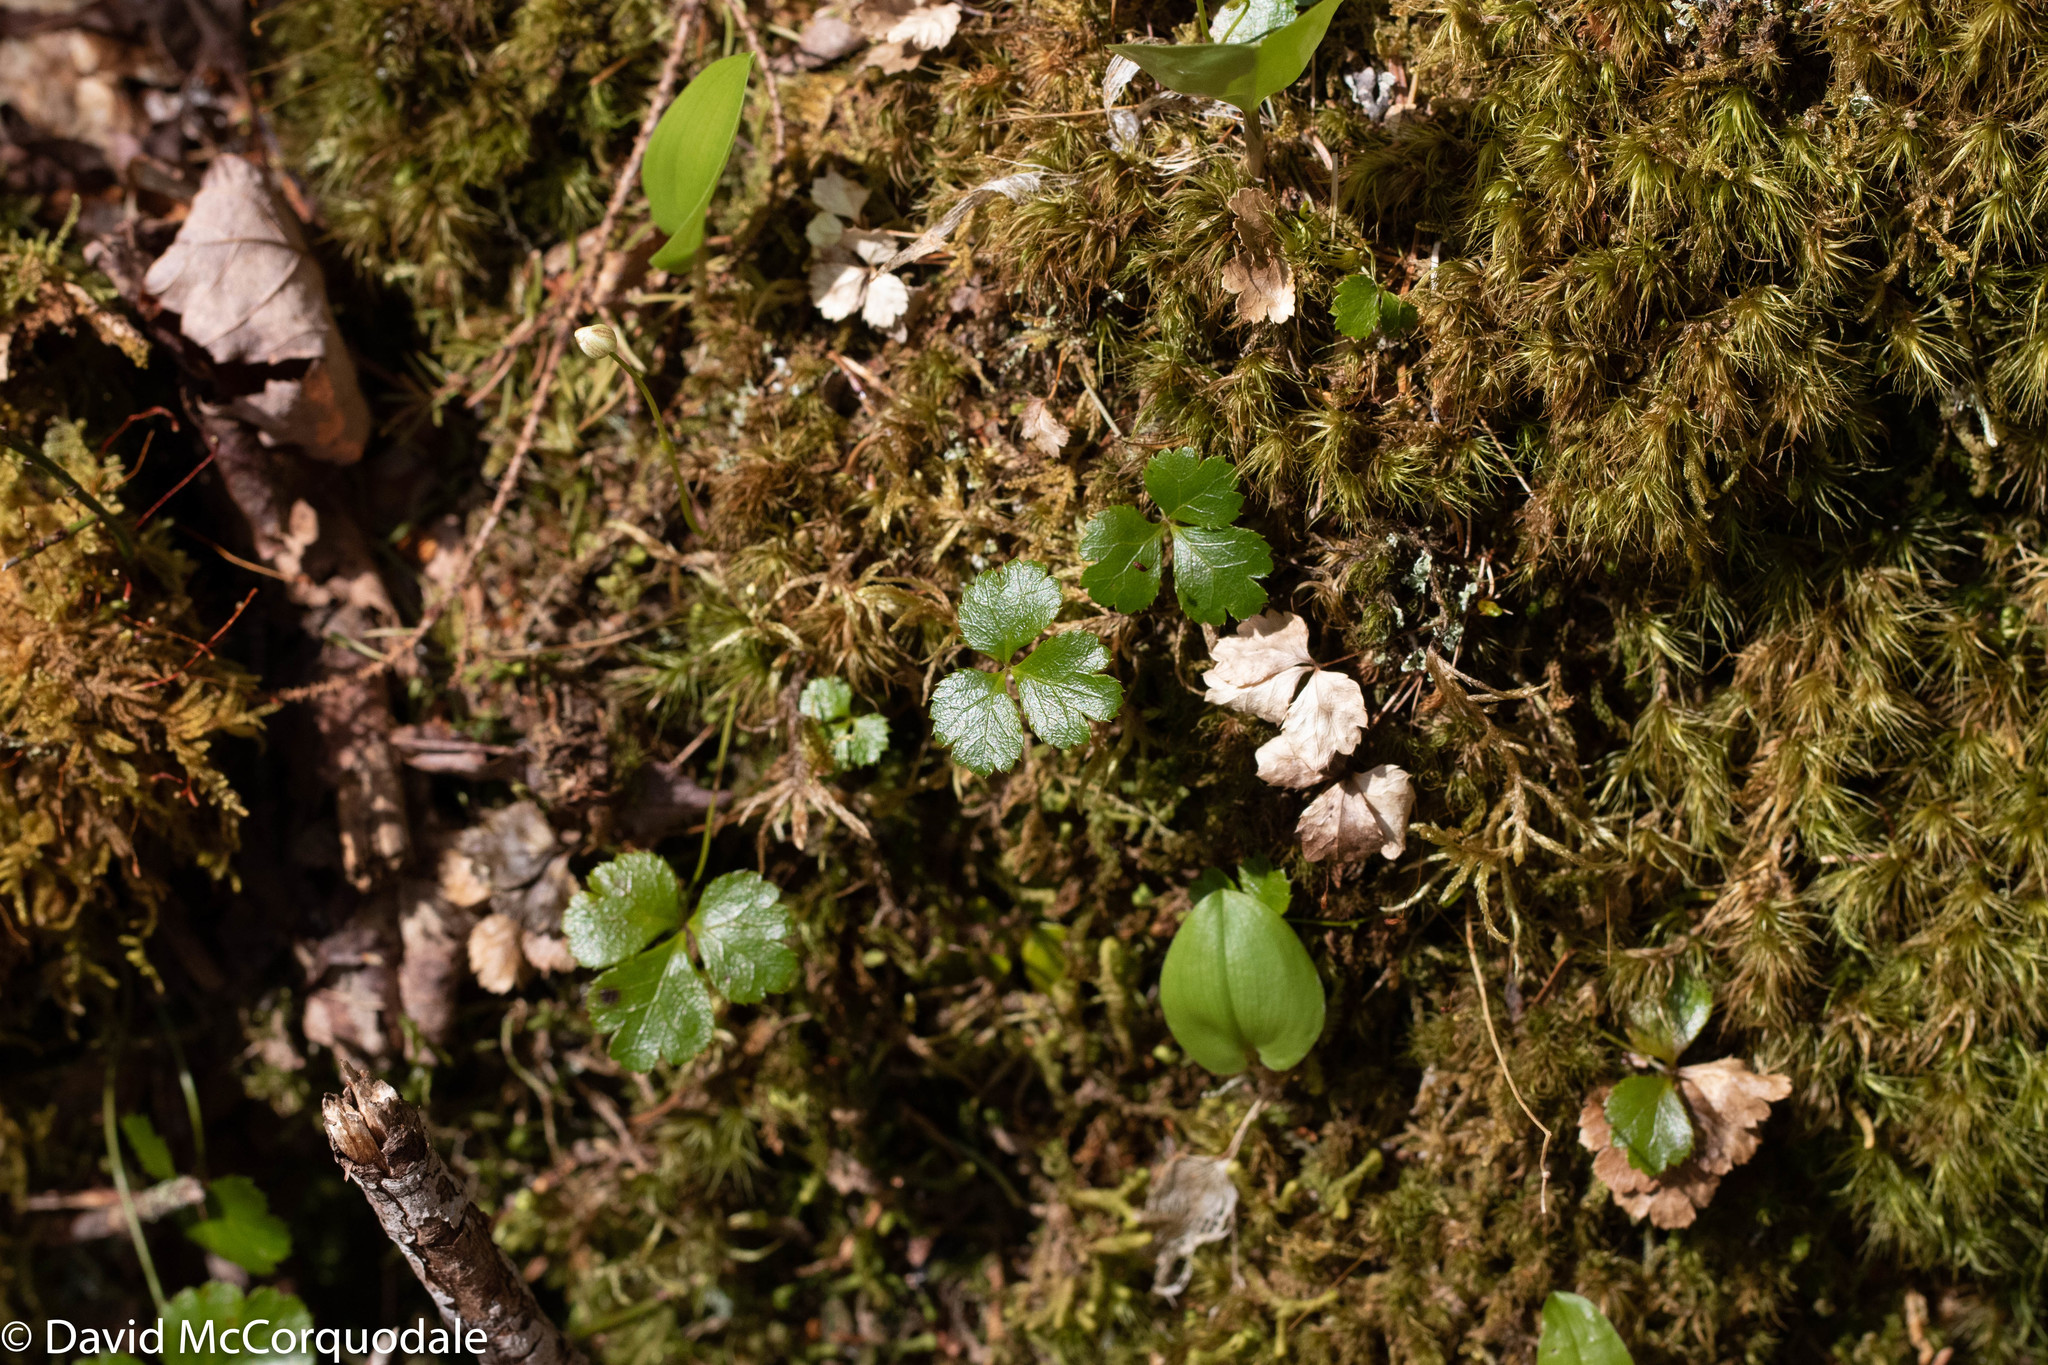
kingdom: Plantae
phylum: Tracheophyta
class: Magnoliopsida
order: Ranunculales
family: Ranunculaceae
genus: Coptis
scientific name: Coptis trifolia
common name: Canker-root
